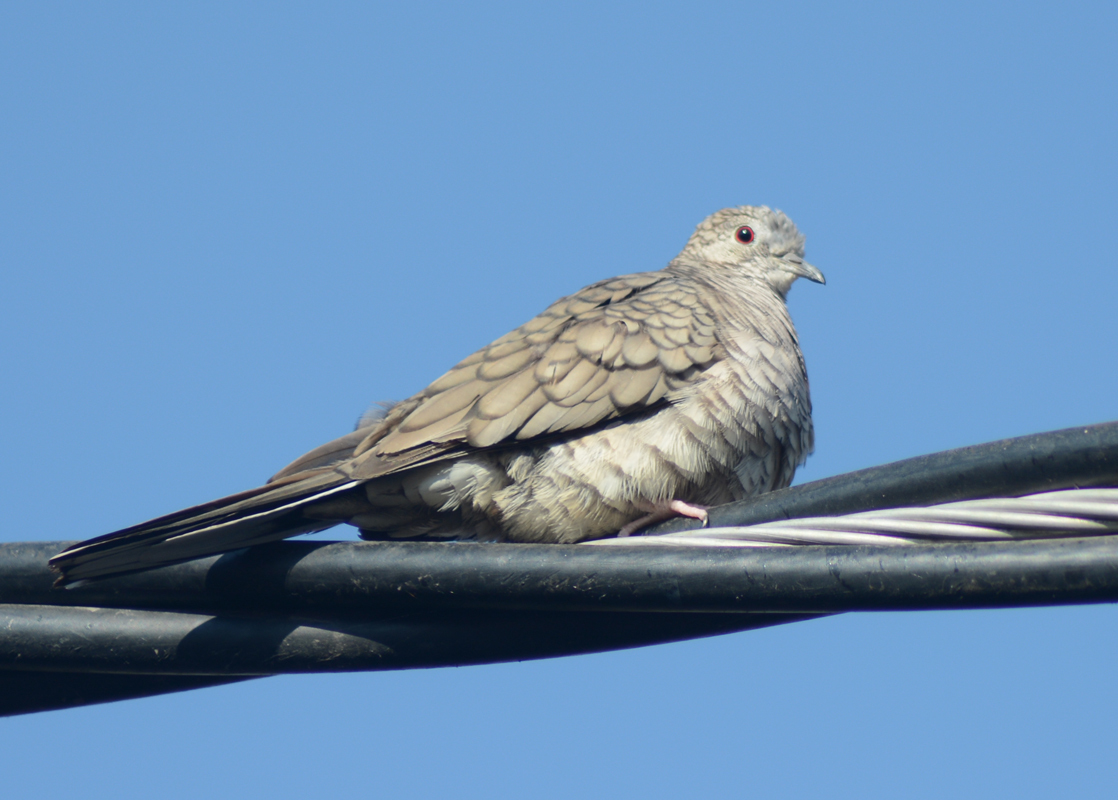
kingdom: Animalia
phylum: Chordata
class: Aves
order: Columbiformes
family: Columbidae
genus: Columbina
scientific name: Columbina inca
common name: Inca dove
